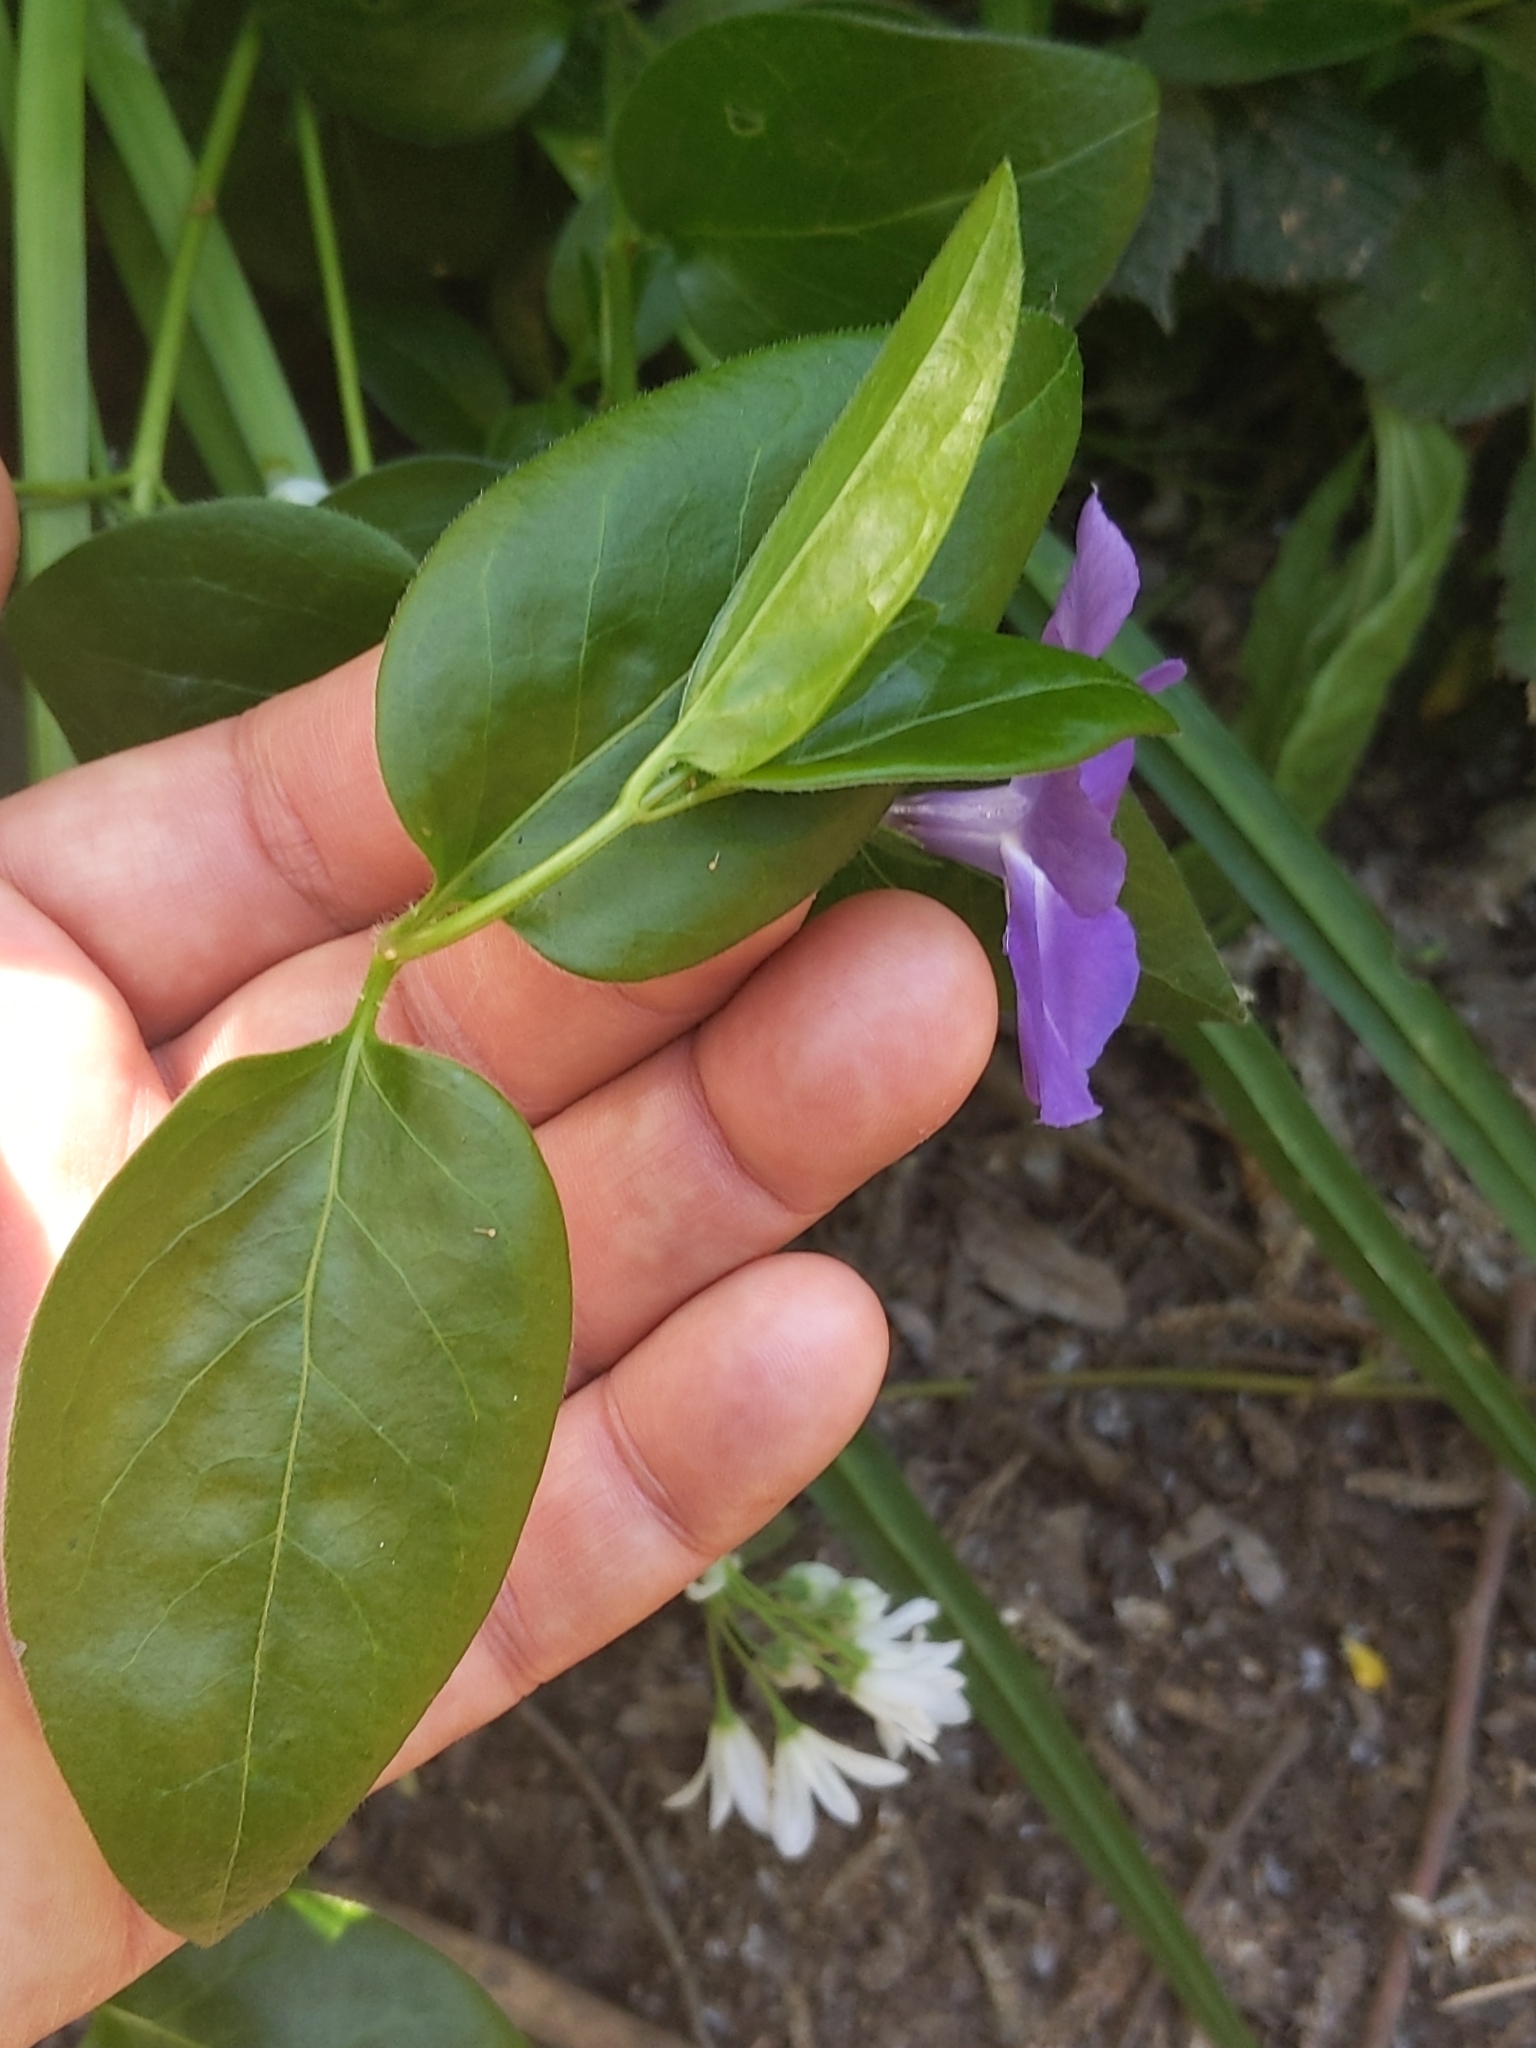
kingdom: Plantae
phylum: Tracheophyta
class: Magnoliopsida
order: Gentianales
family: Apocynaceae
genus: Vinca
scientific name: Vinca major
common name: Greater periwinkle
